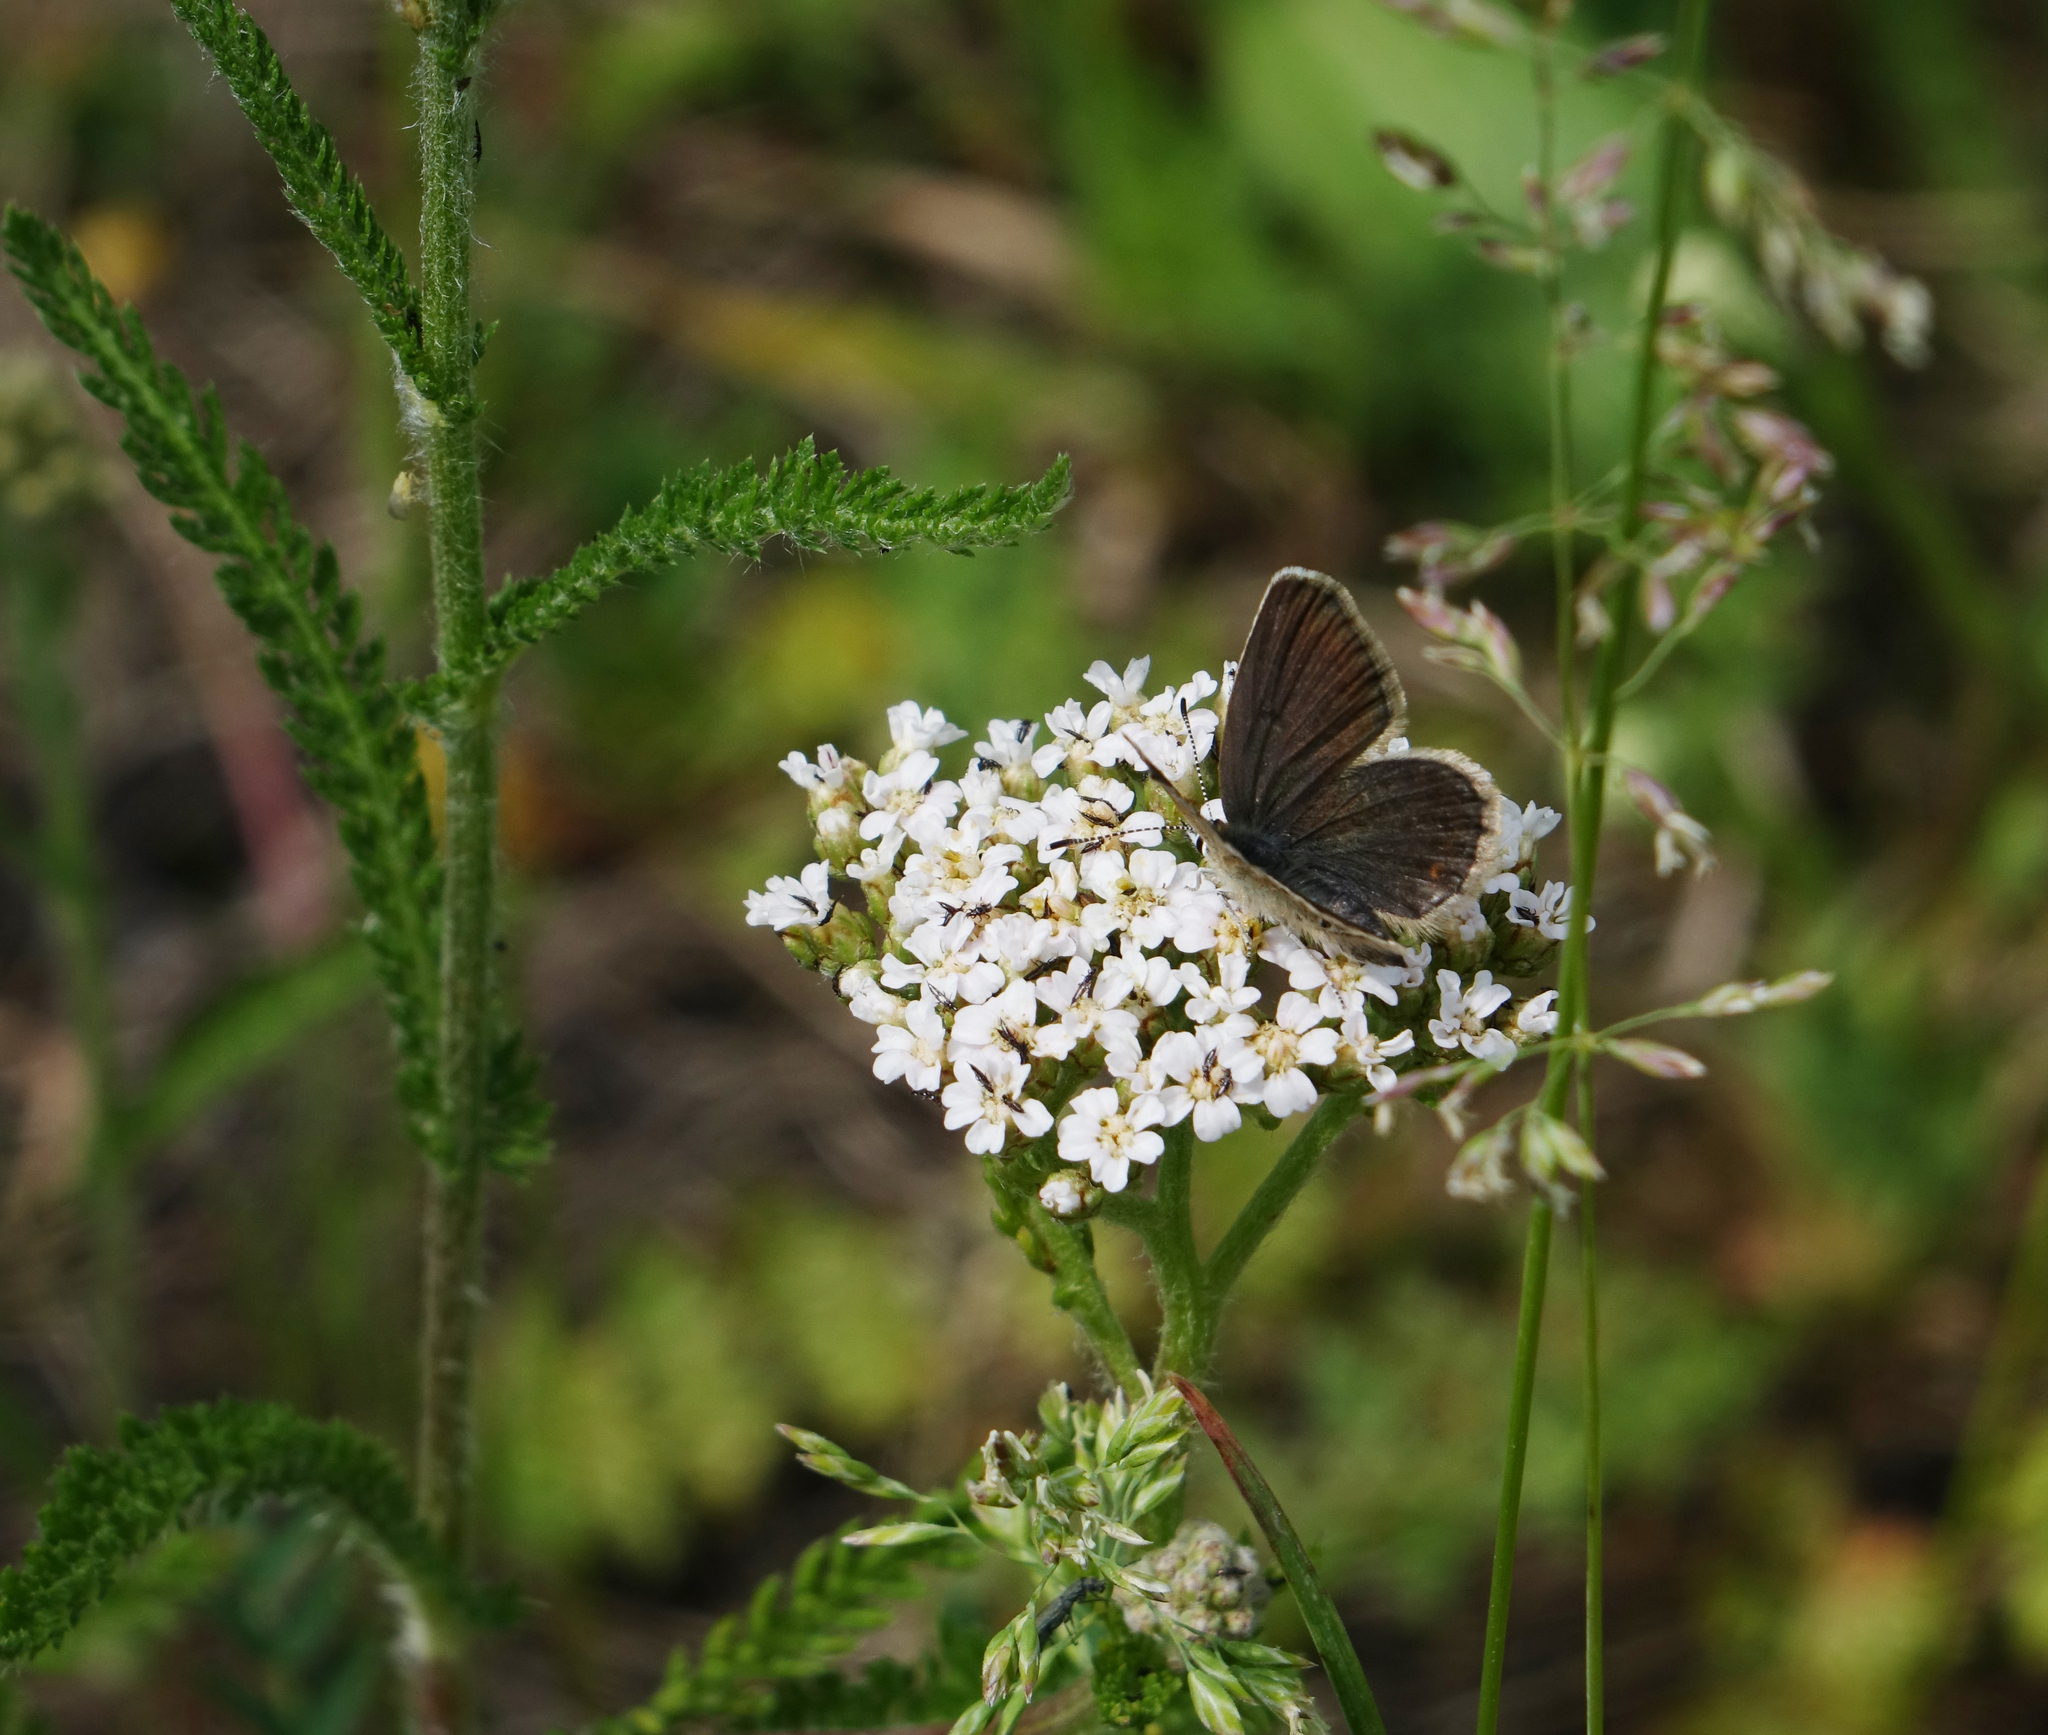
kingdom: Plantae
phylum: Tracheophyta
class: Magnoliopsida
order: Asterales
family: Asteraceae
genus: Achillea
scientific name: Achillea millefolium
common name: Yarrow
